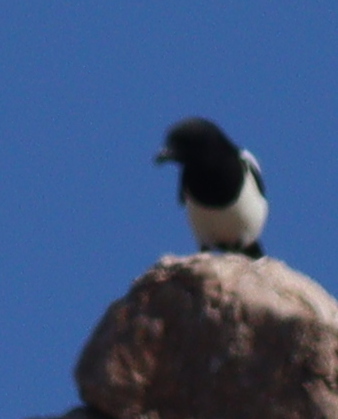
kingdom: Animalia
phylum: Chordata
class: Aves
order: Passeriformes
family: Corvidae
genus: Pica
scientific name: Pica pica
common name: Eurasian magpie
